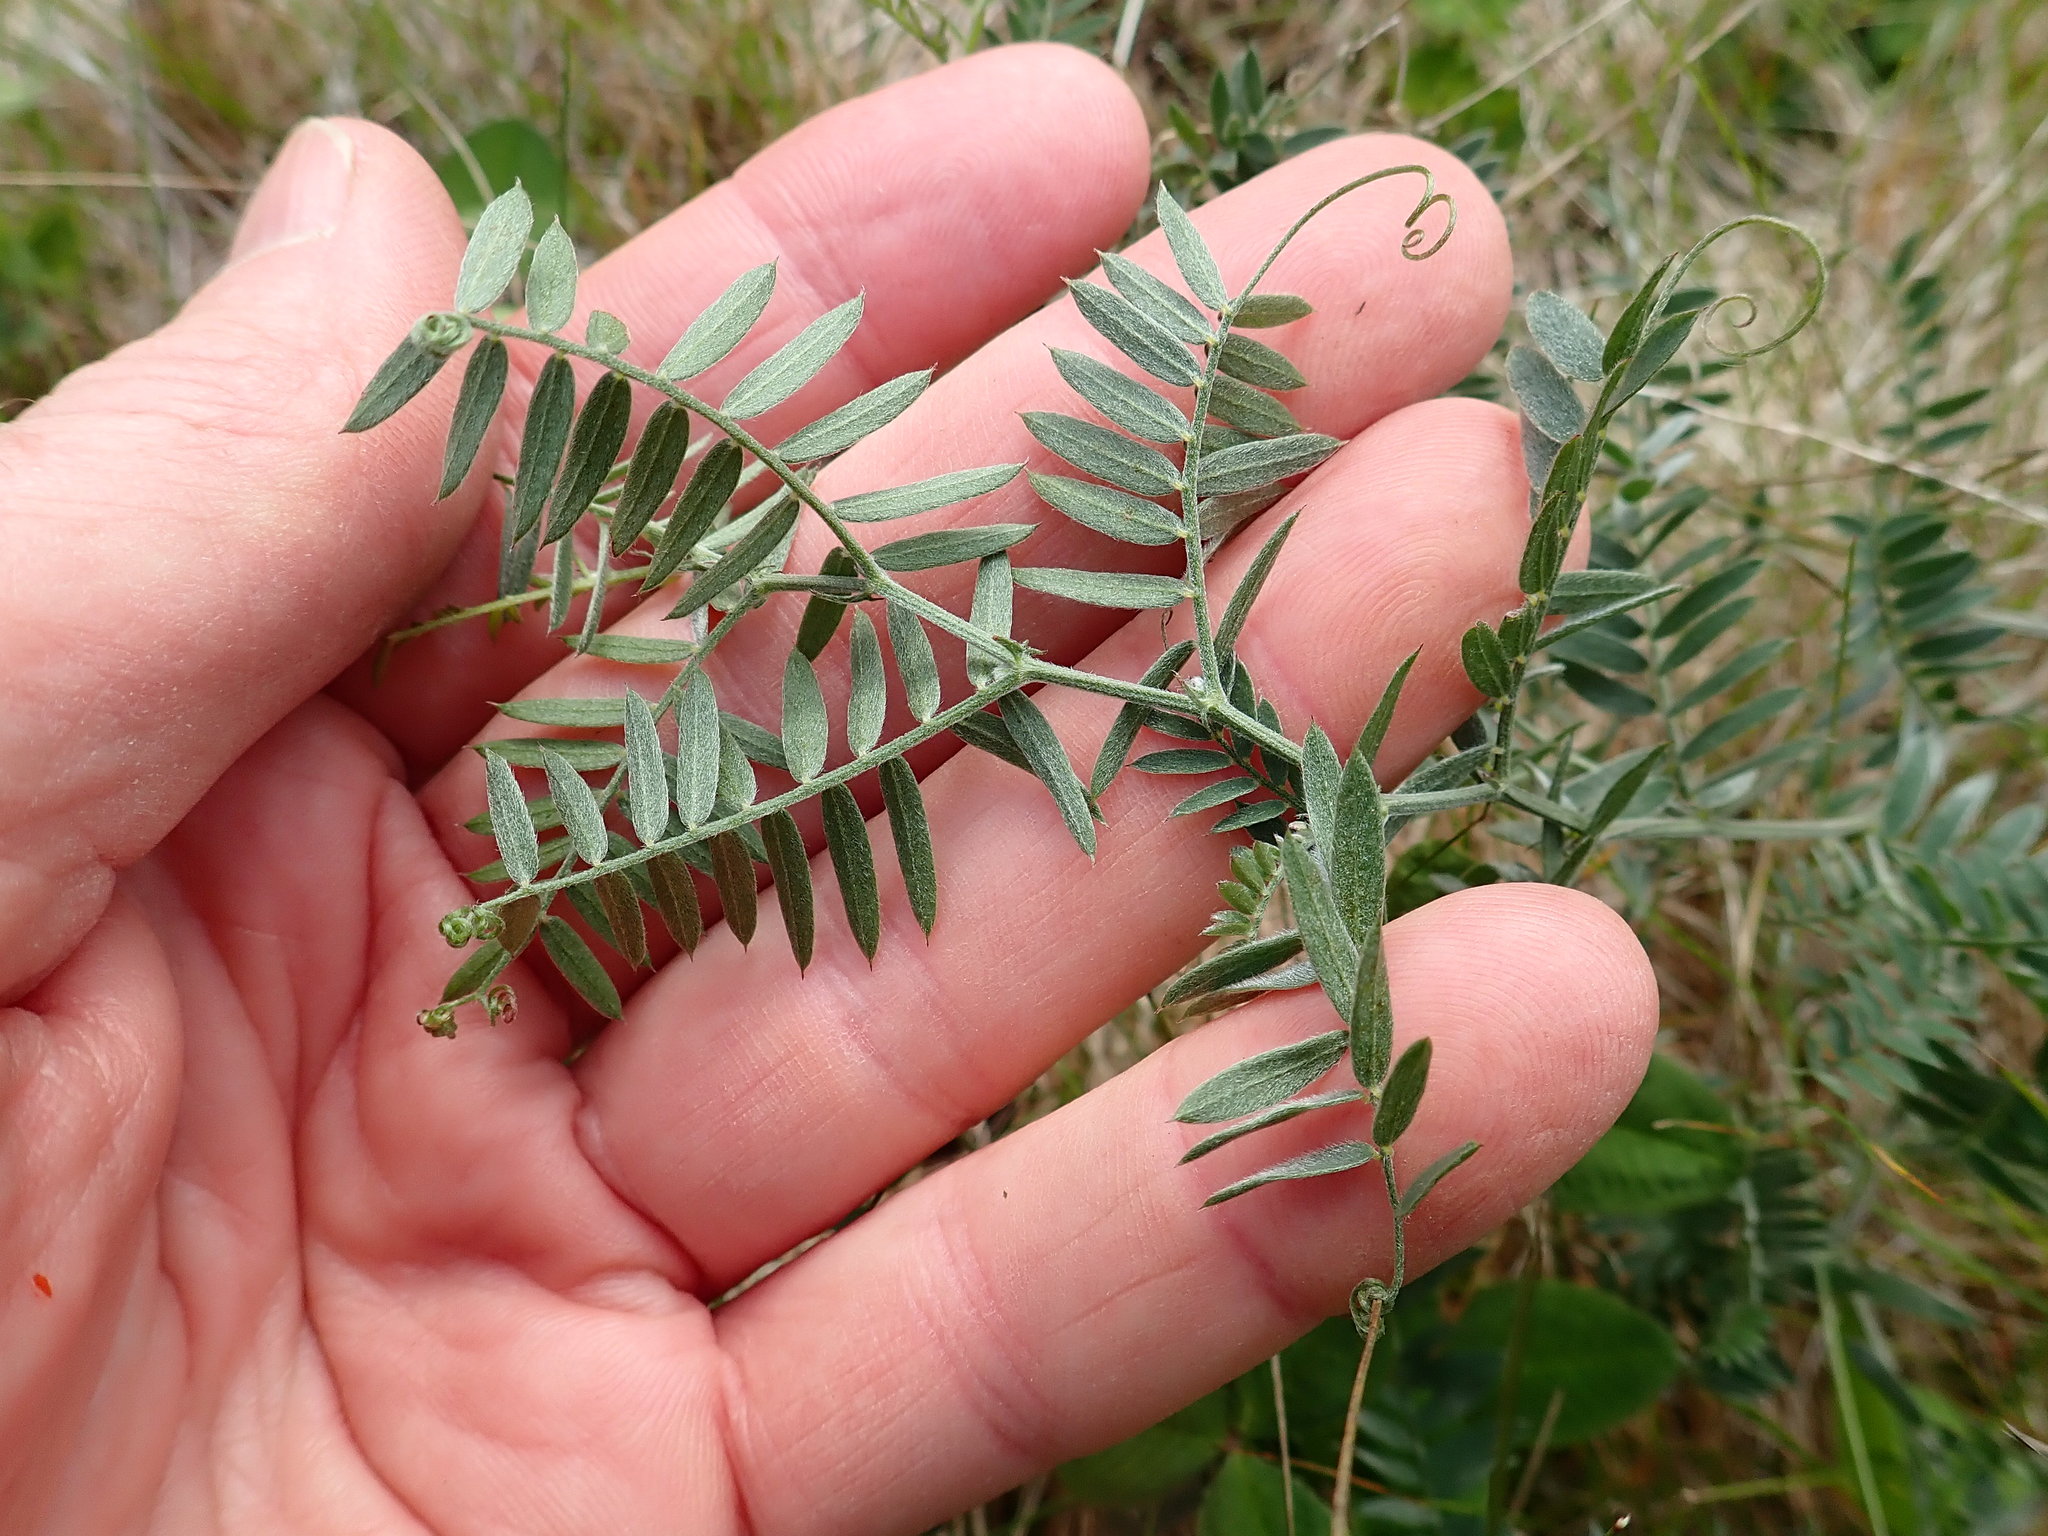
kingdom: Plantae
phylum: Tracheophyta
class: Magnoliopsida
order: Fabales
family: Fabaceae
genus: Vicia
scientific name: Vicia cracca
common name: Bird vetch
